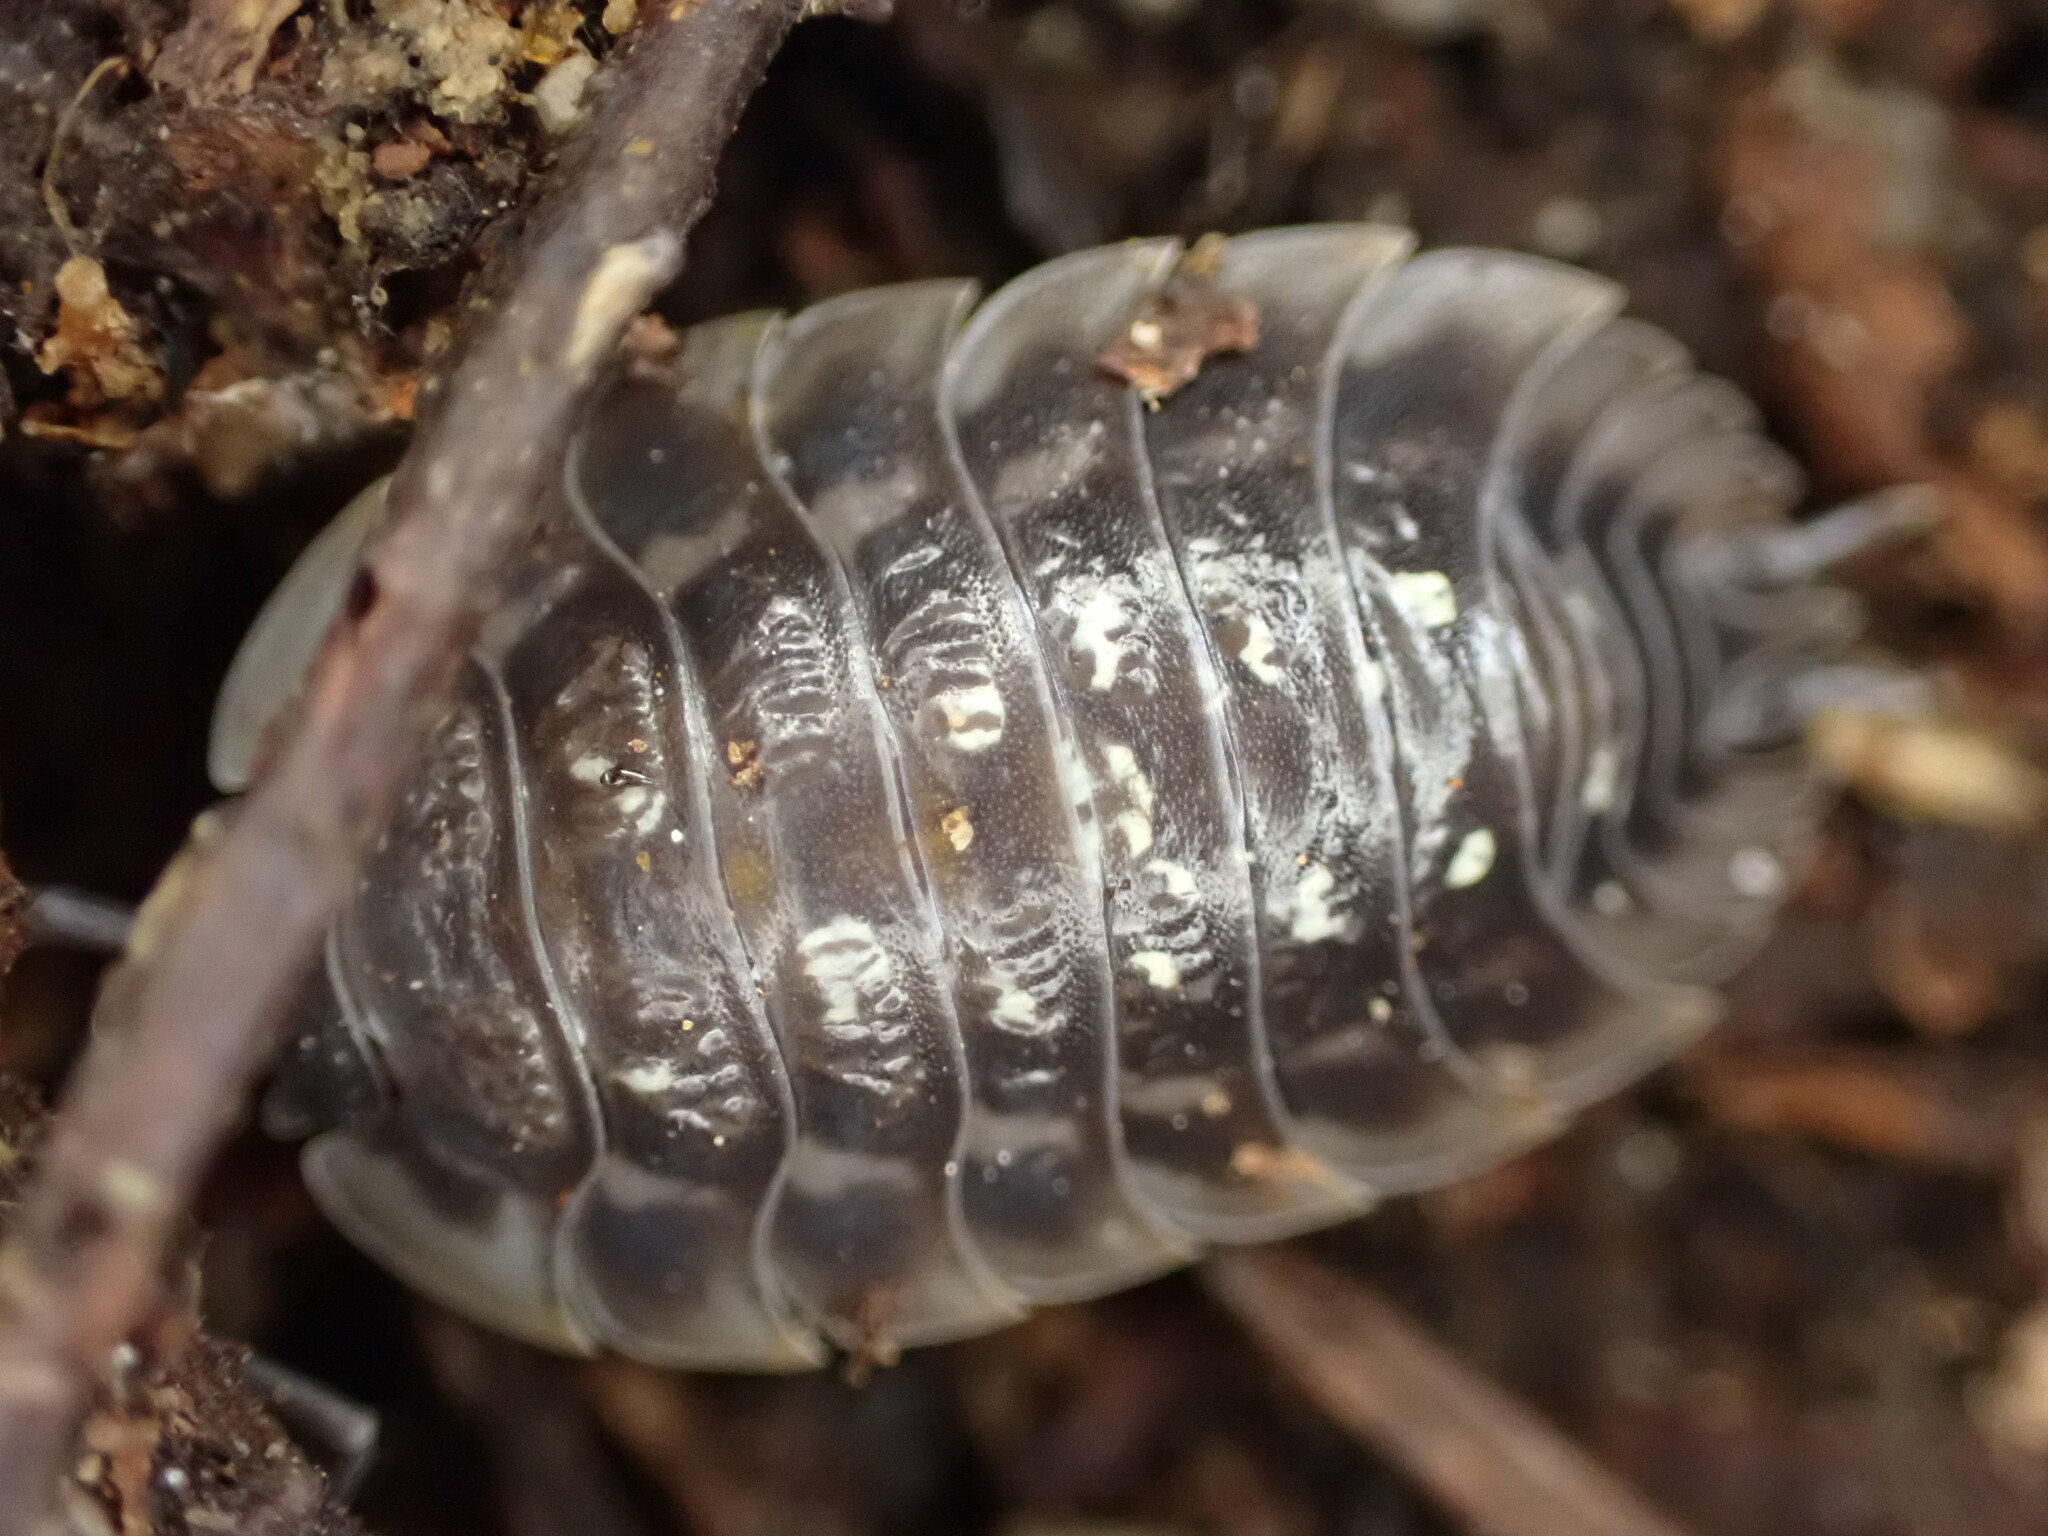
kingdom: Animalia
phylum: Arthropoda
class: Malacostraca
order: Isopoda
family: Oniscidae
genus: Oniscus
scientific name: Oniscus asellus
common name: Common shiny woodlouse
